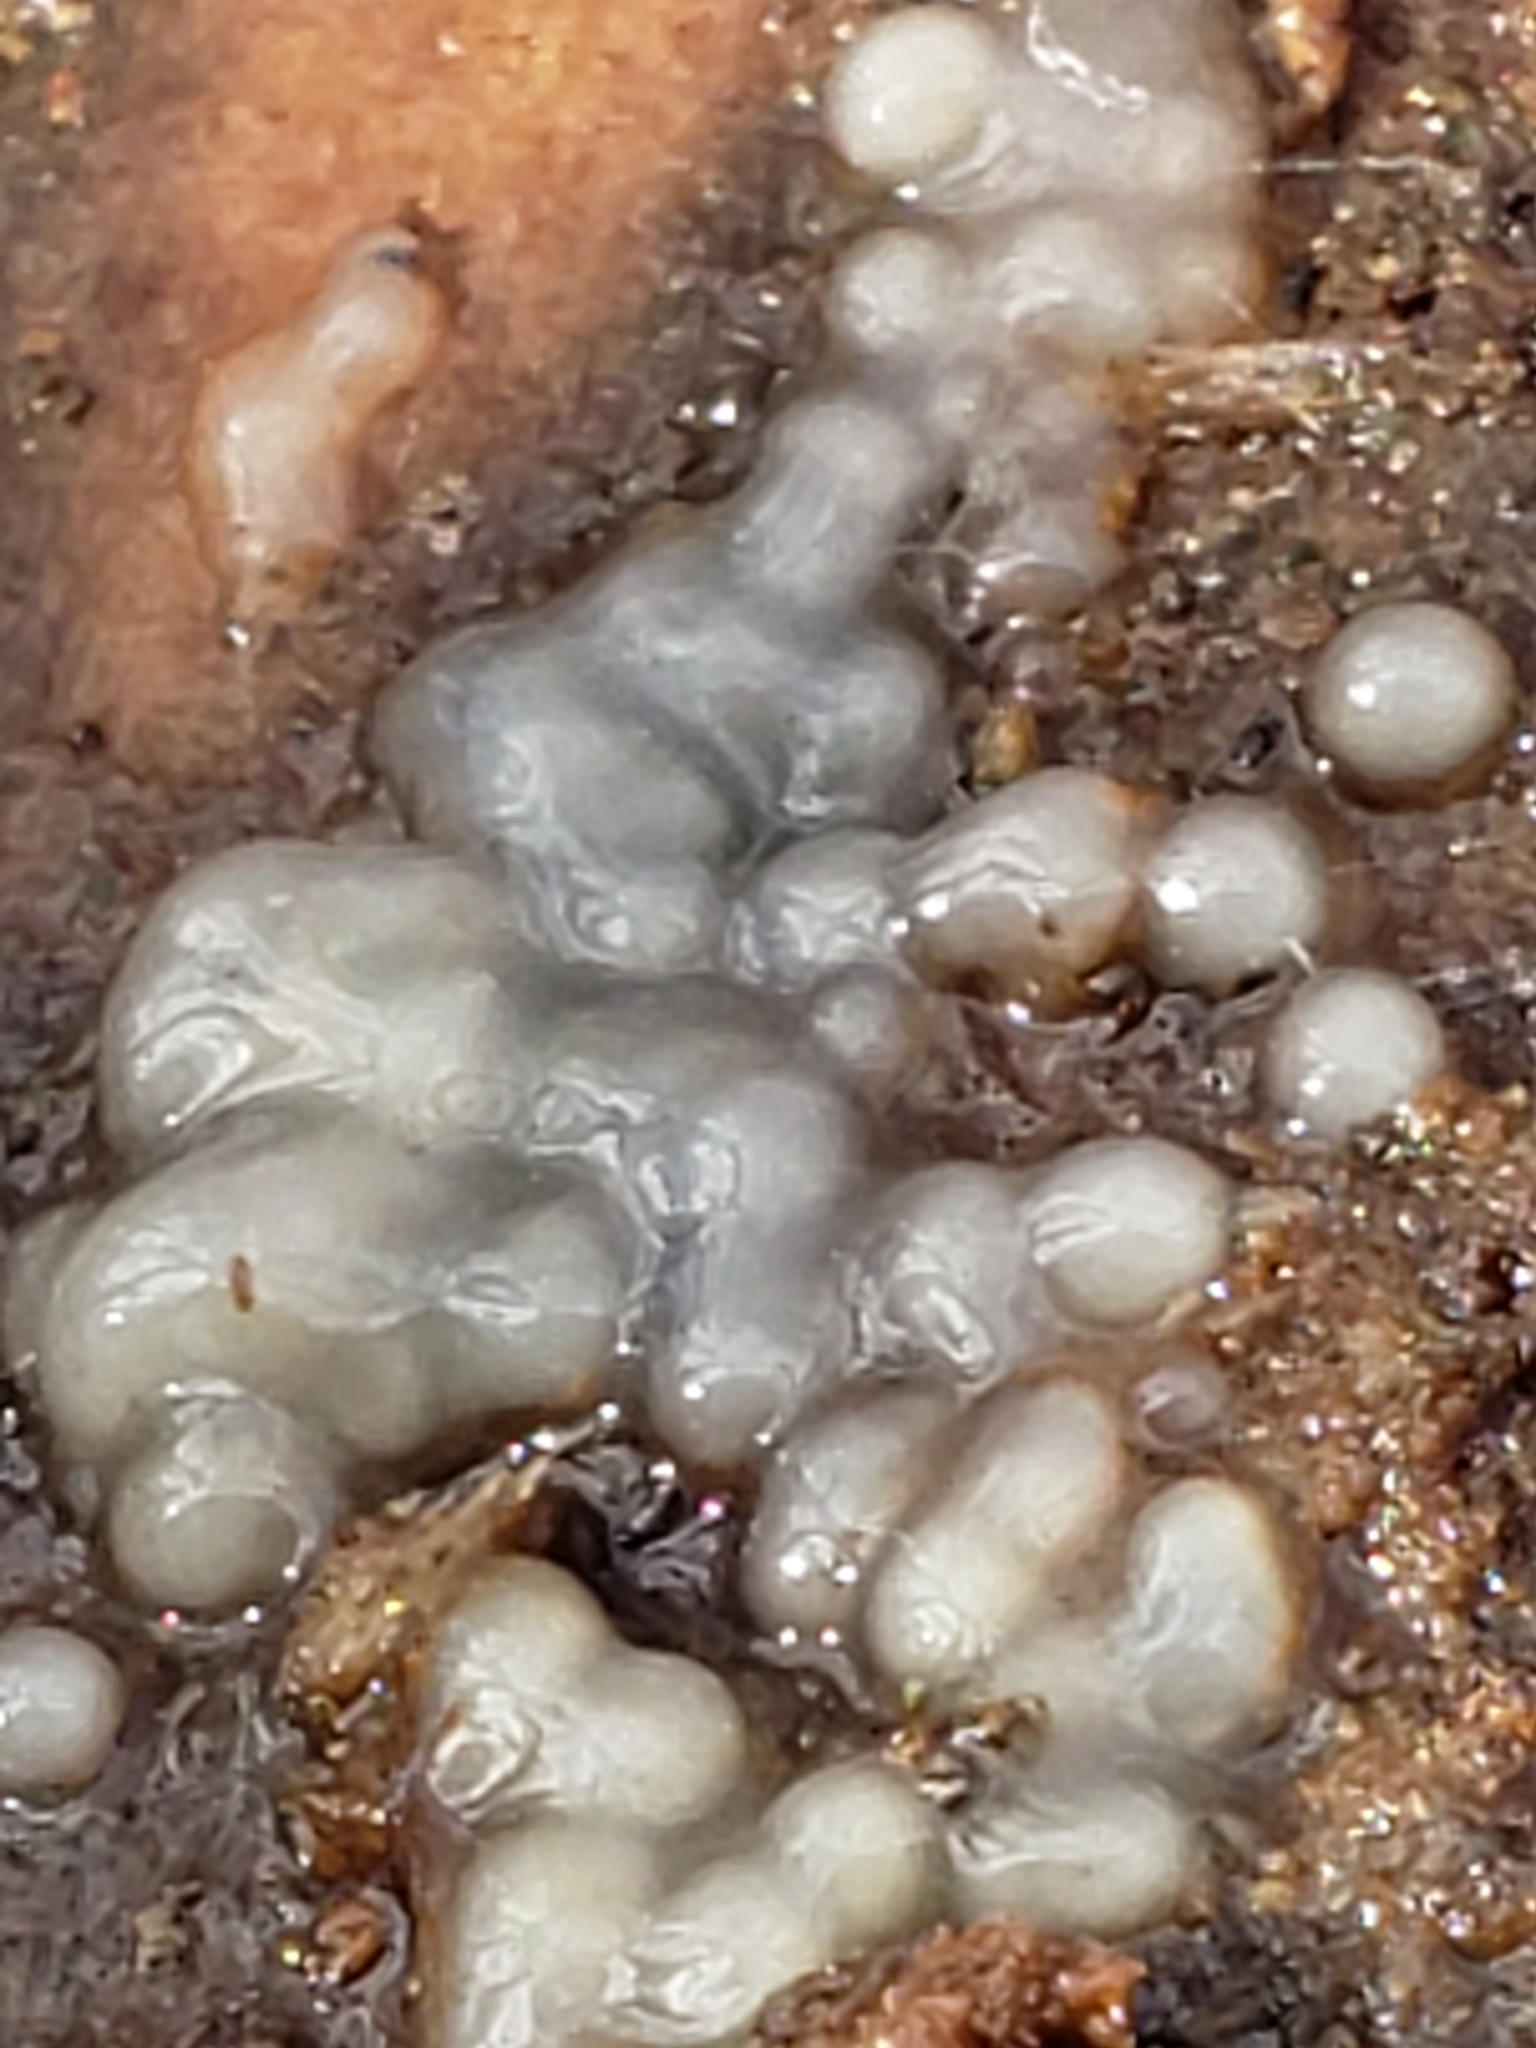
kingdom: Fungi
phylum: Basidiomycota
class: Atractiellomycetes
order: Atractiellales
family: Phleogenaceae
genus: Helicogloea
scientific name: Helicogloea compressa
